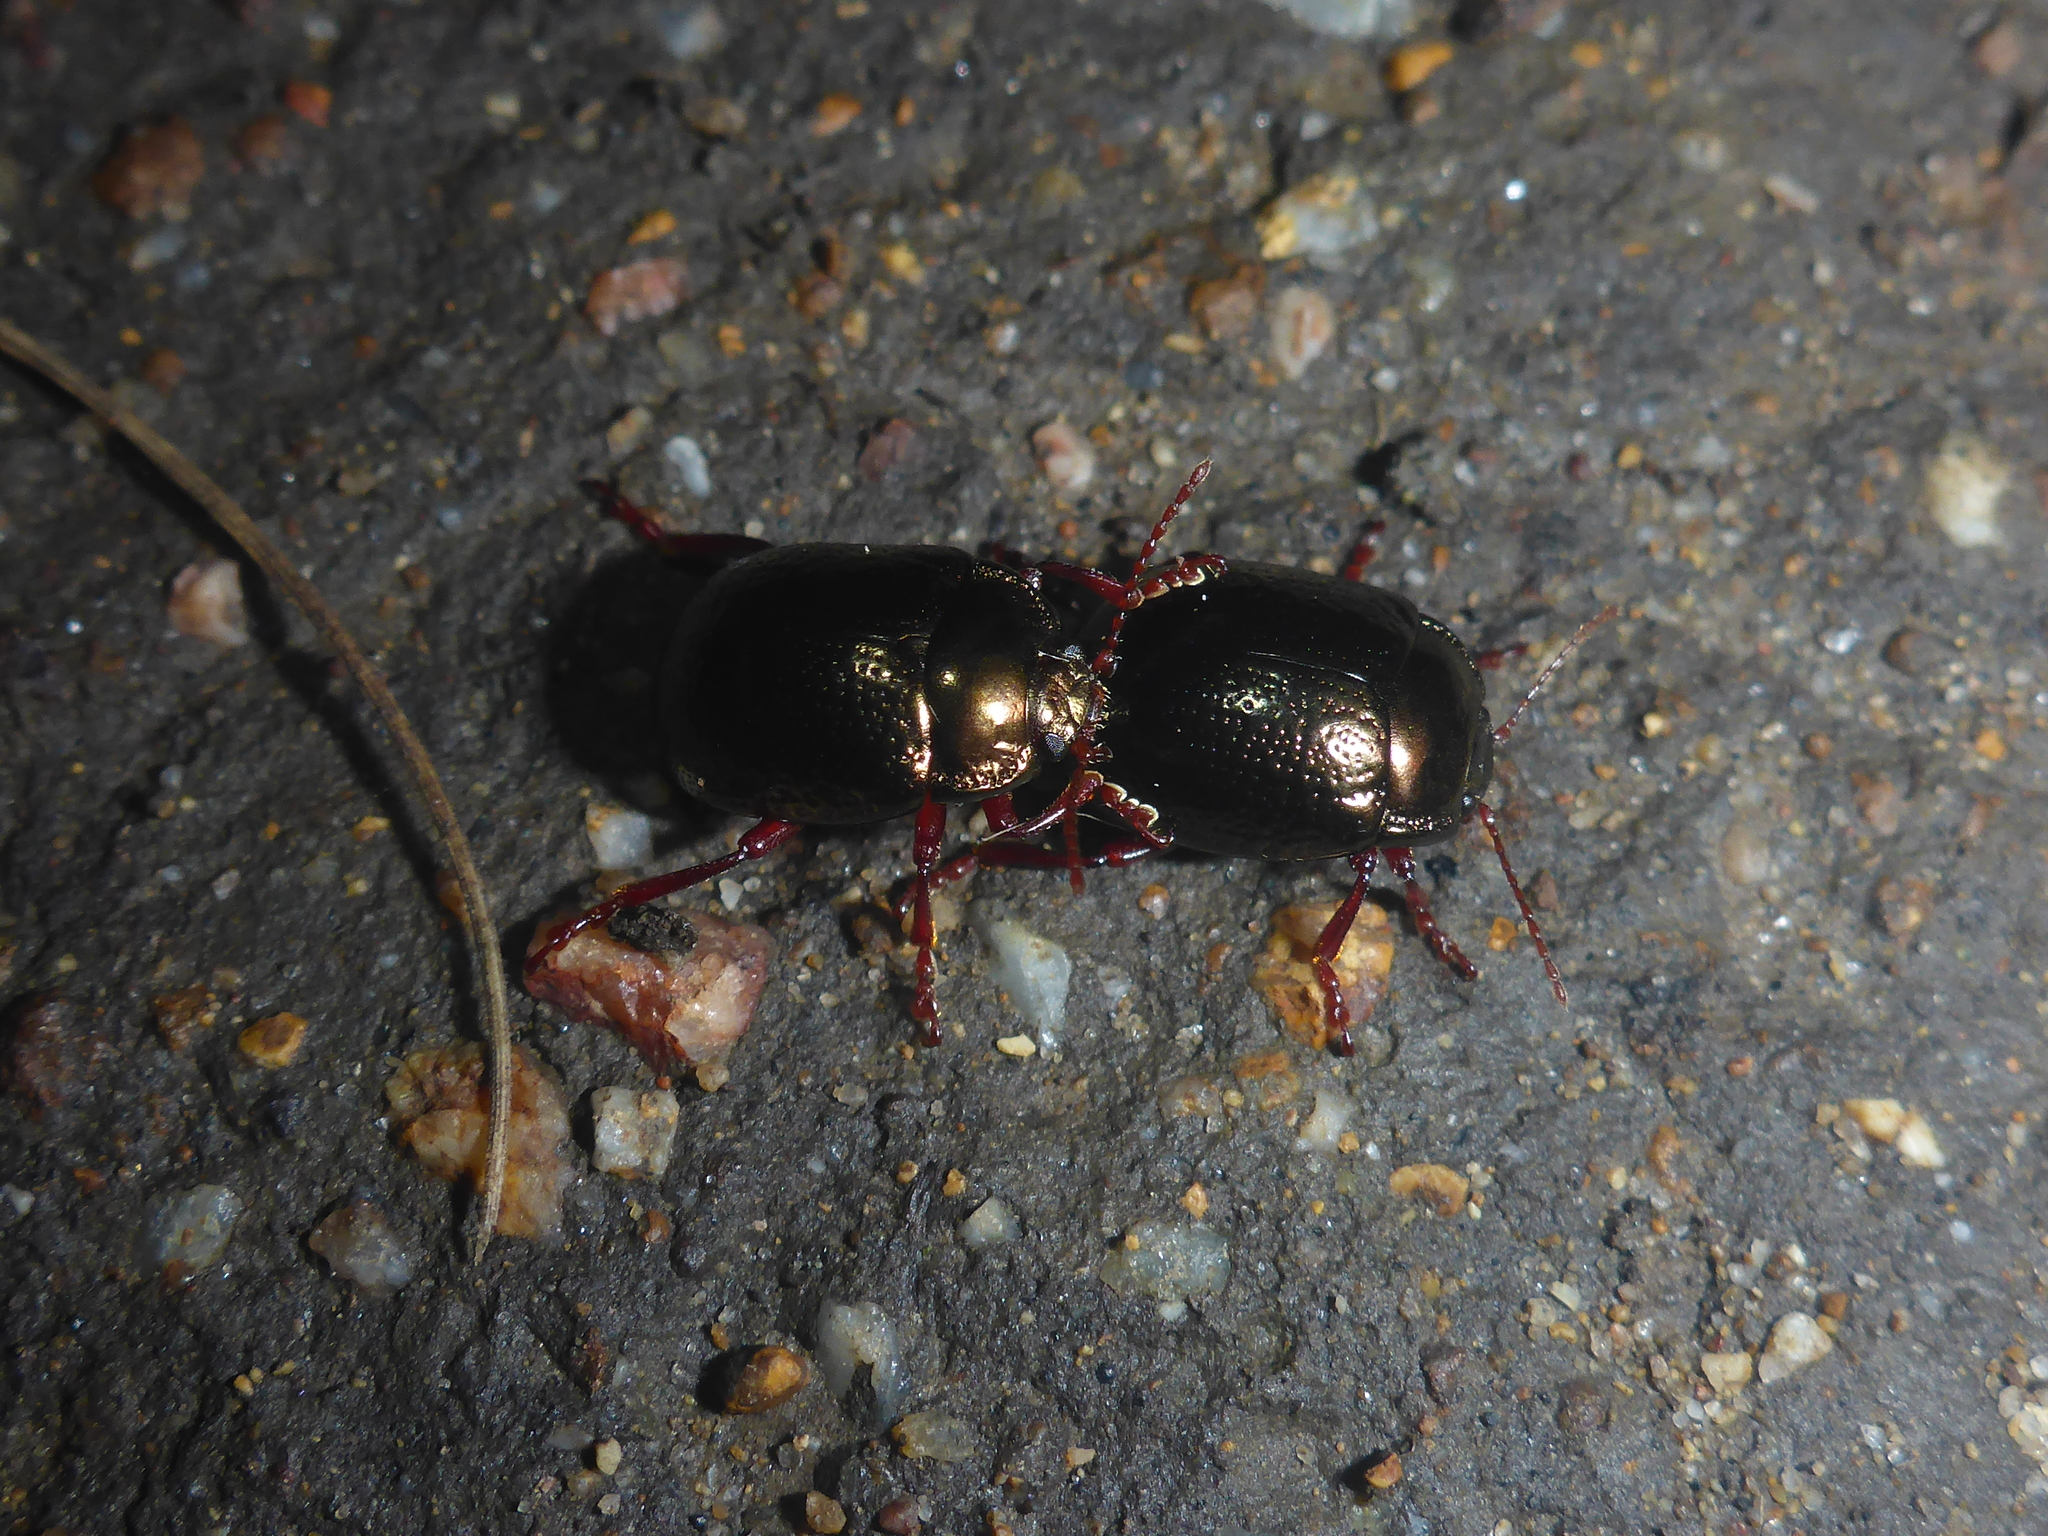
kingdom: Animalia
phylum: Arthropoda
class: Insecta
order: Coleoptera
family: Chrysomelidae
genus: Chrysolina
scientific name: Chrysolina bankii
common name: Leaf beetle
